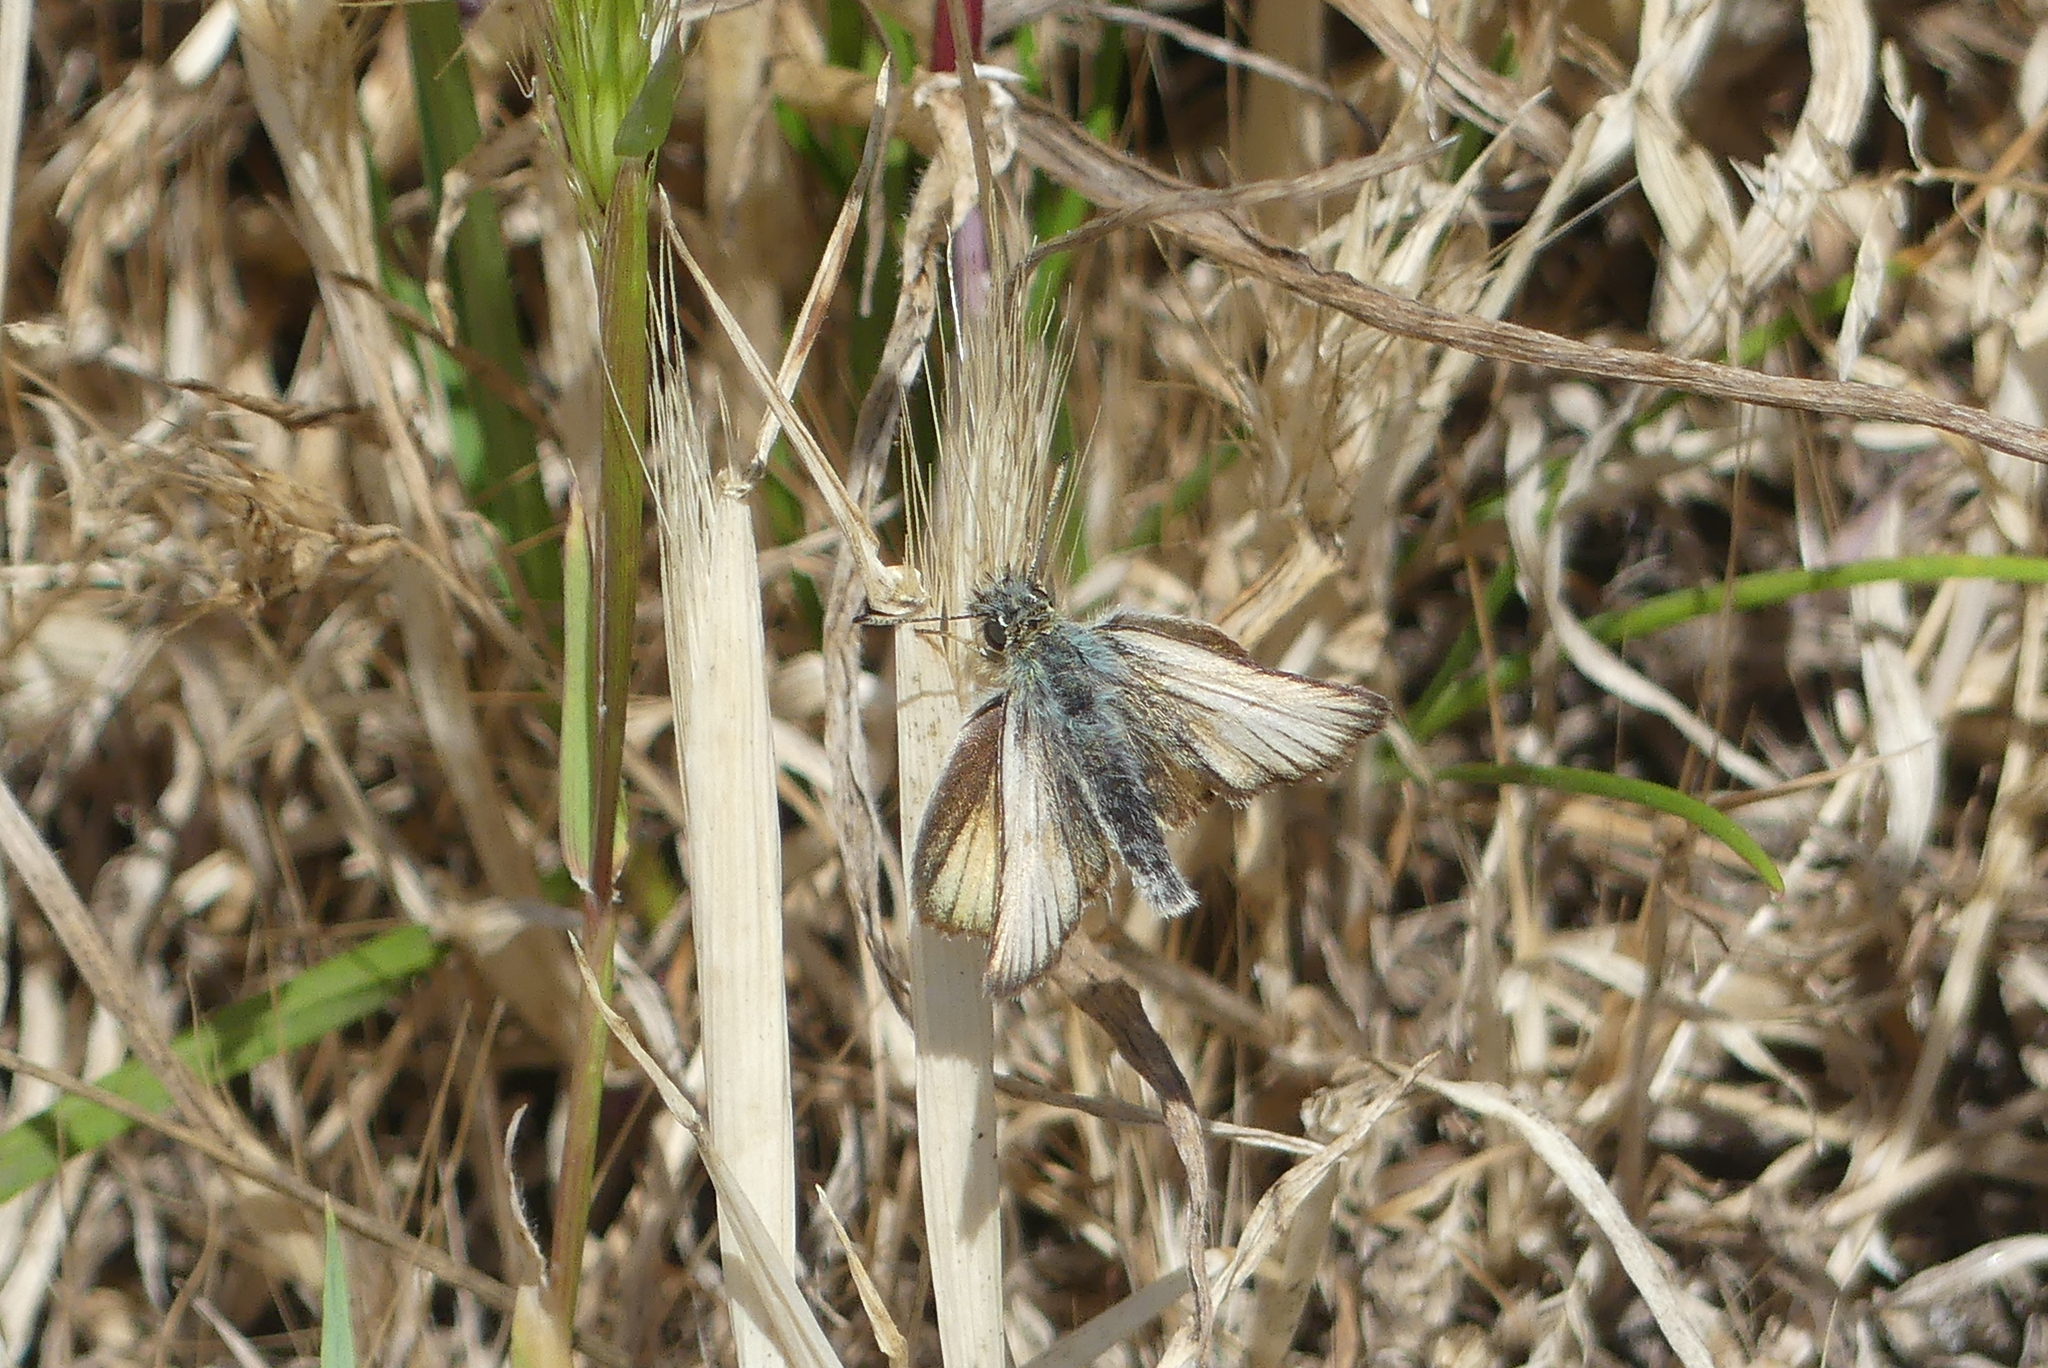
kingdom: Animalia
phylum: Arthropoda
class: Insecta
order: Lepidoptera
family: Hesperiidae
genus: Thymelicus
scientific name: Thymelicus lineola
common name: Essex skipper
